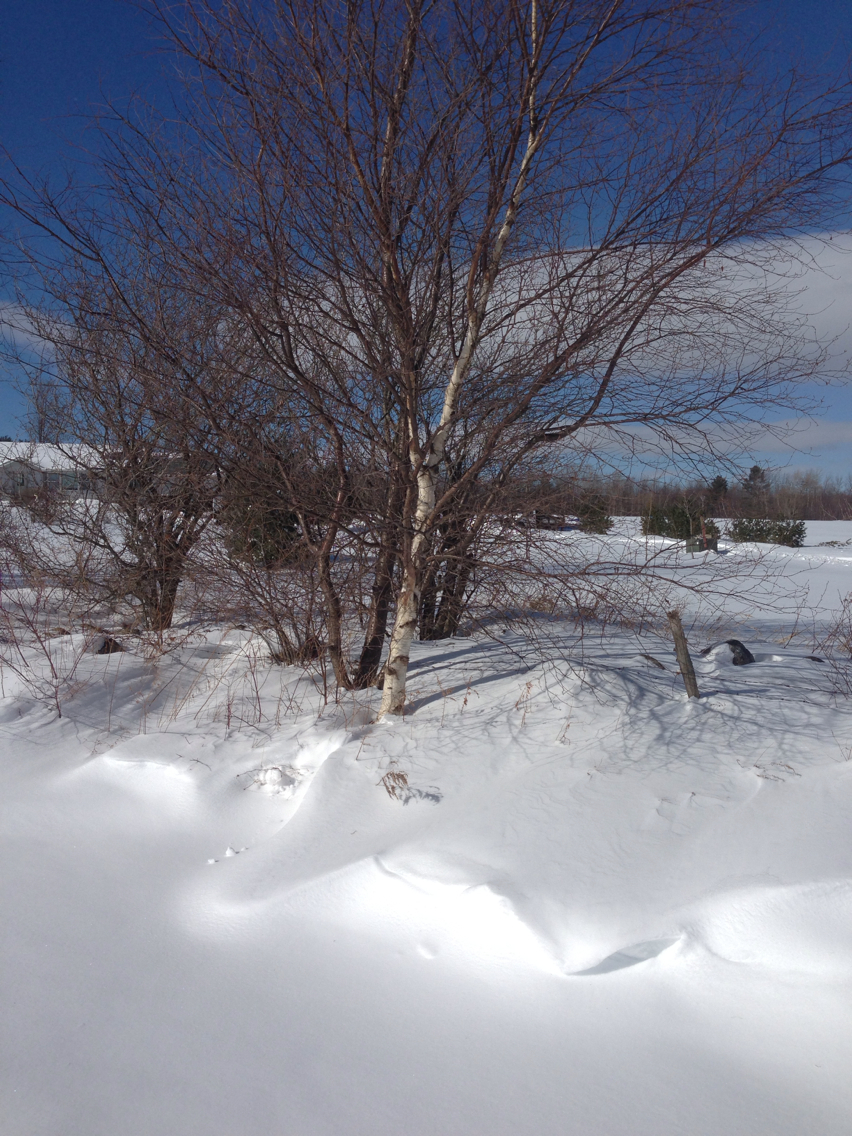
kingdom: Plantae
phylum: Tracheophyta
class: Magnoliopsida
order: Fagales
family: Betulaceae
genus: Betula
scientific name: Betula populifolia
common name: Fire birch
